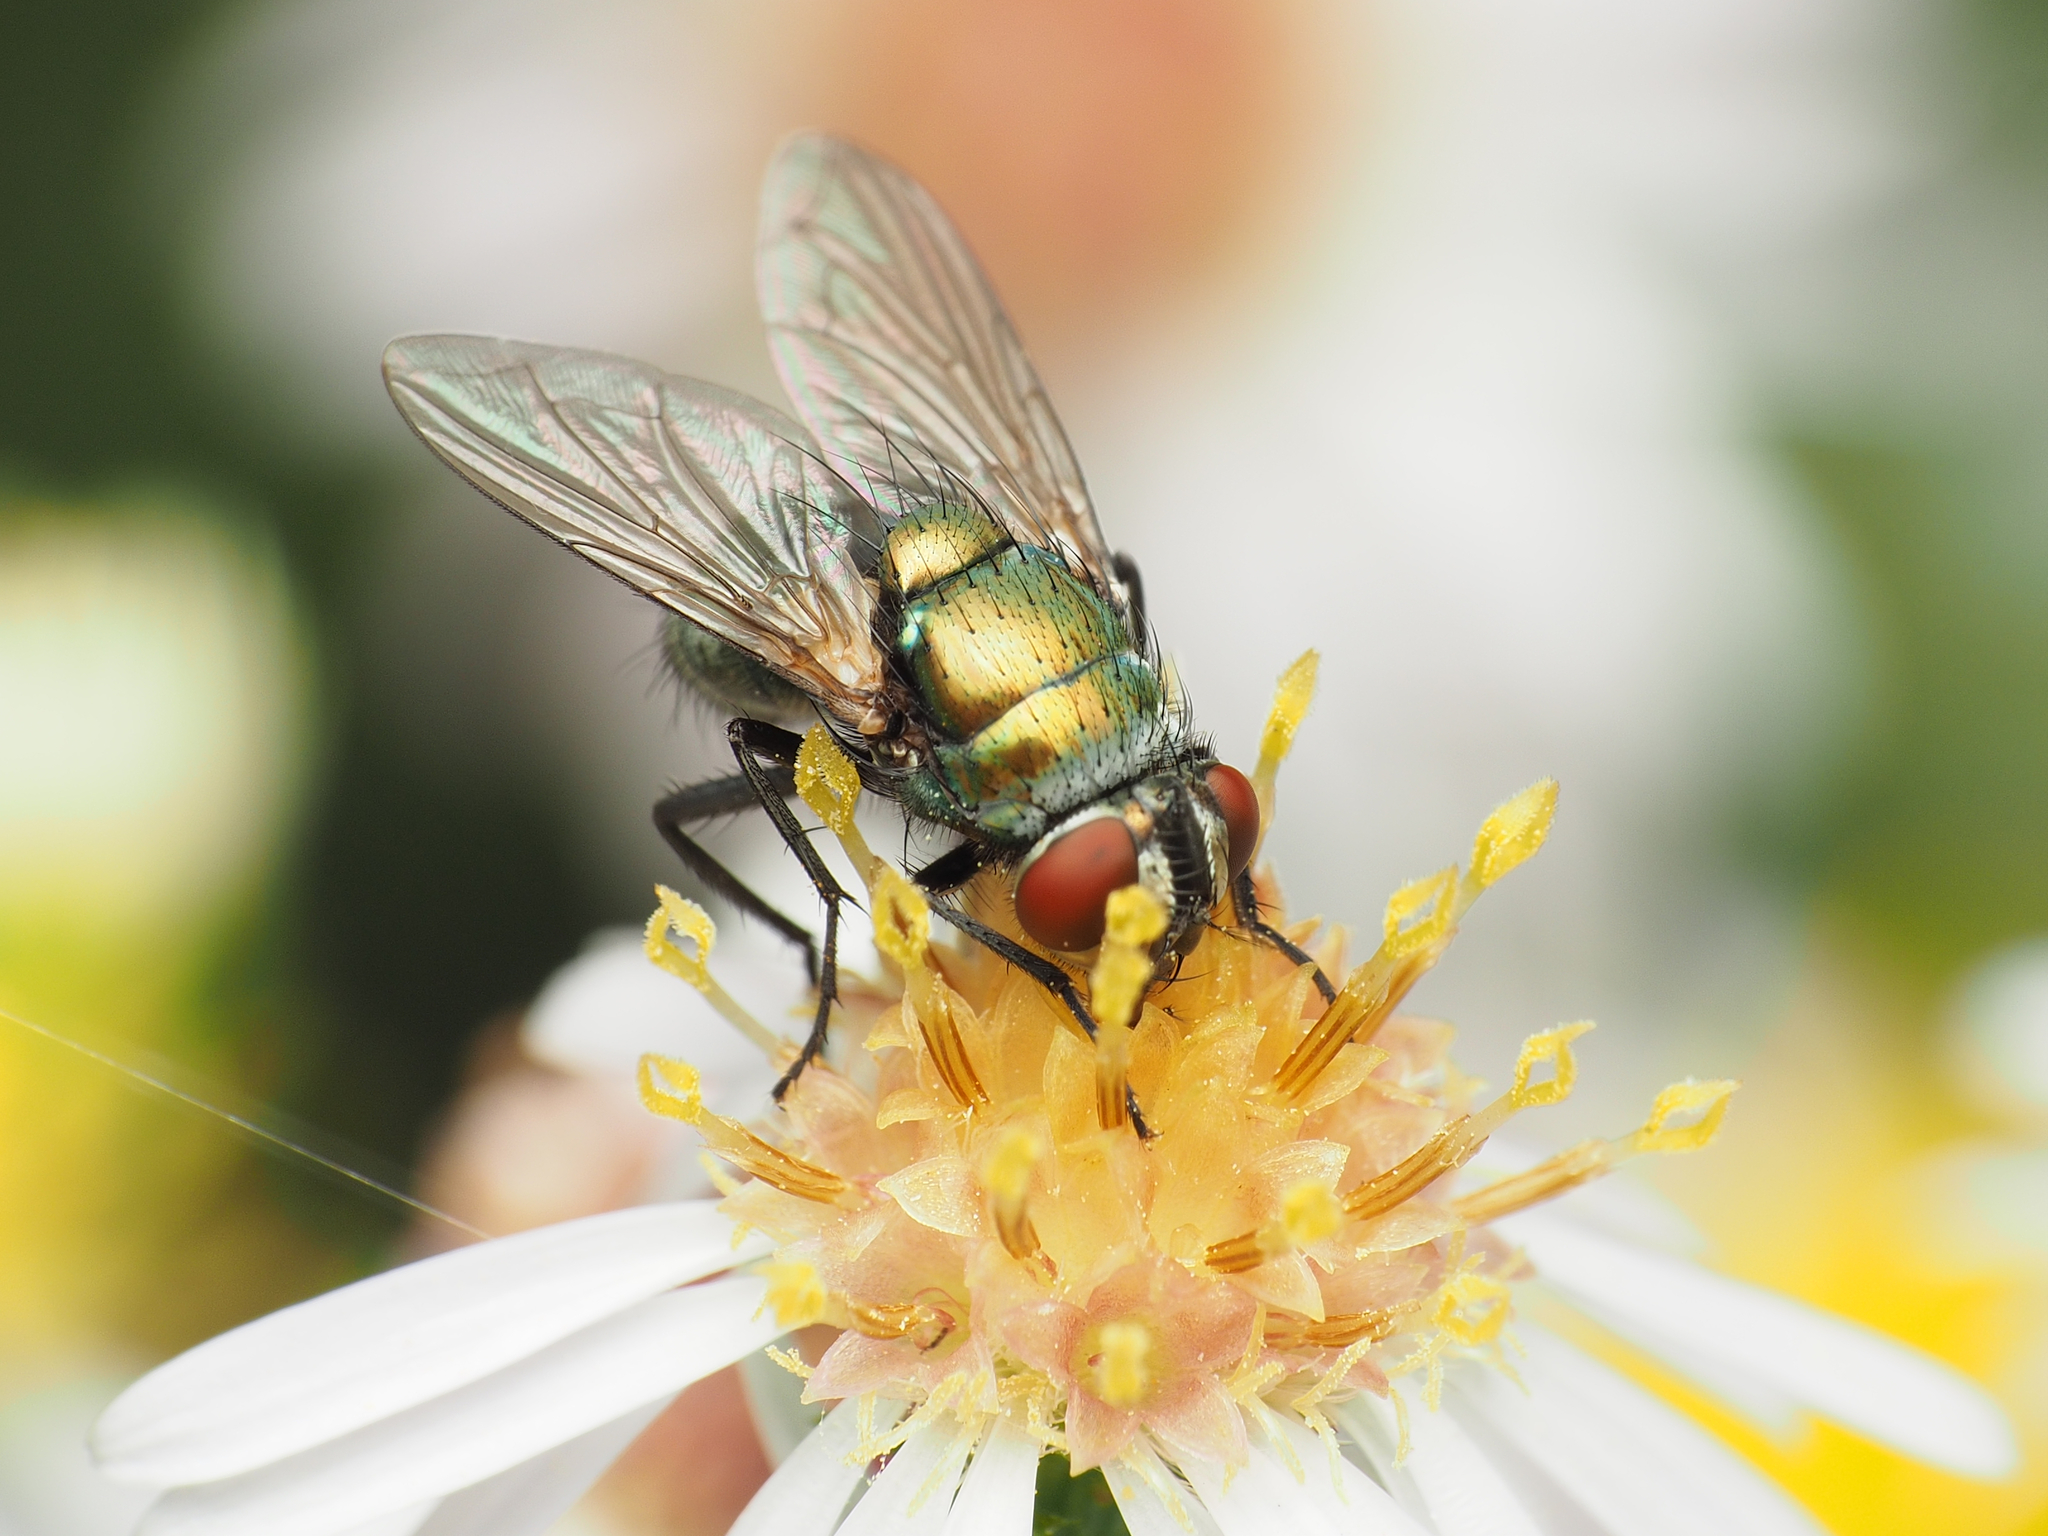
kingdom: Animalia
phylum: Arthropoda
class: Insecta
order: Diptera
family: Calliphoridae
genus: Lucilia
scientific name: Lucilia sericata
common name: Blow fly
